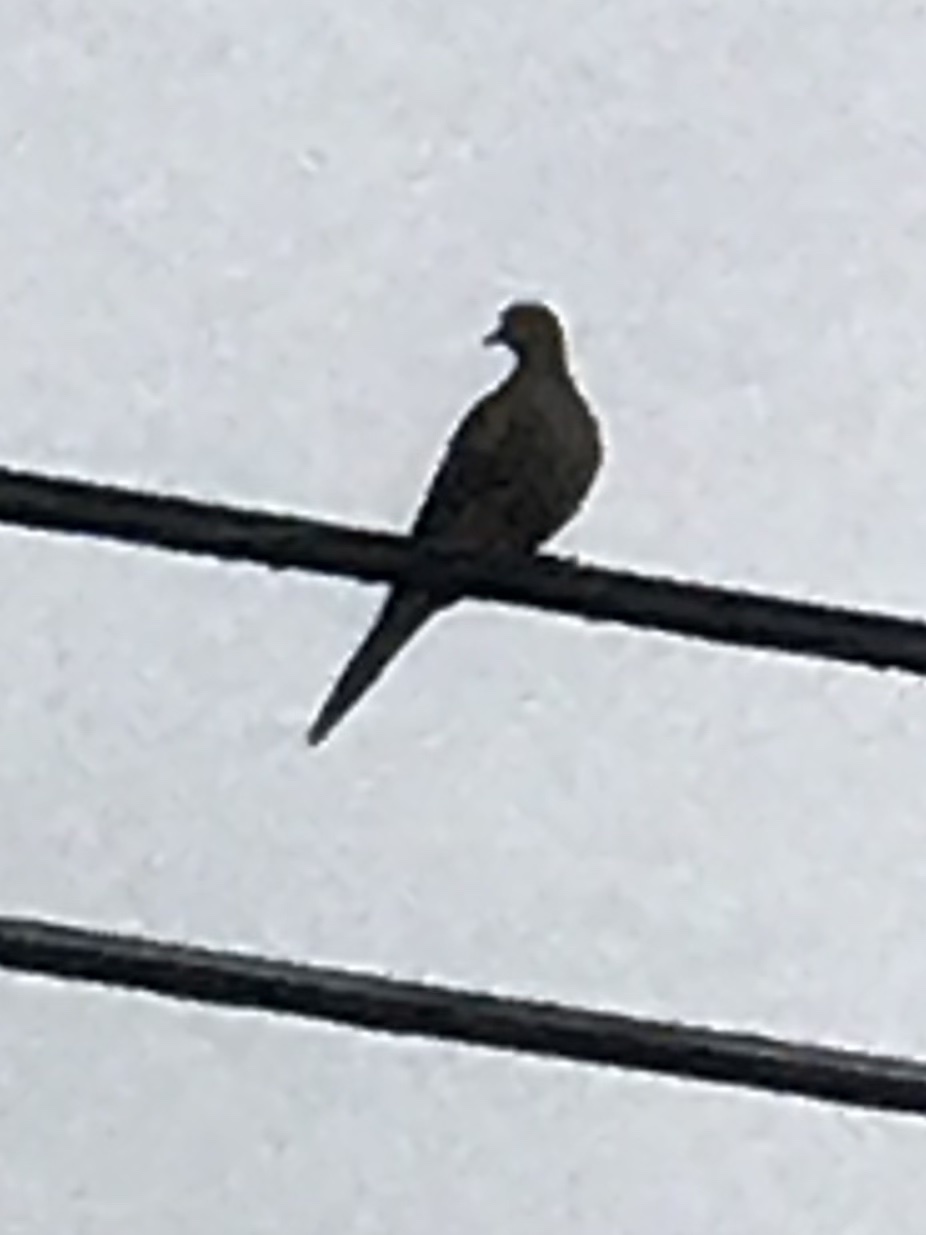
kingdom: Animalia
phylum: Chordata
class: Aves
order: Columbiformes
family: Columbidae
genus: Zenaida
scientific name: Zenaida macroura
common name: Mourning dove
